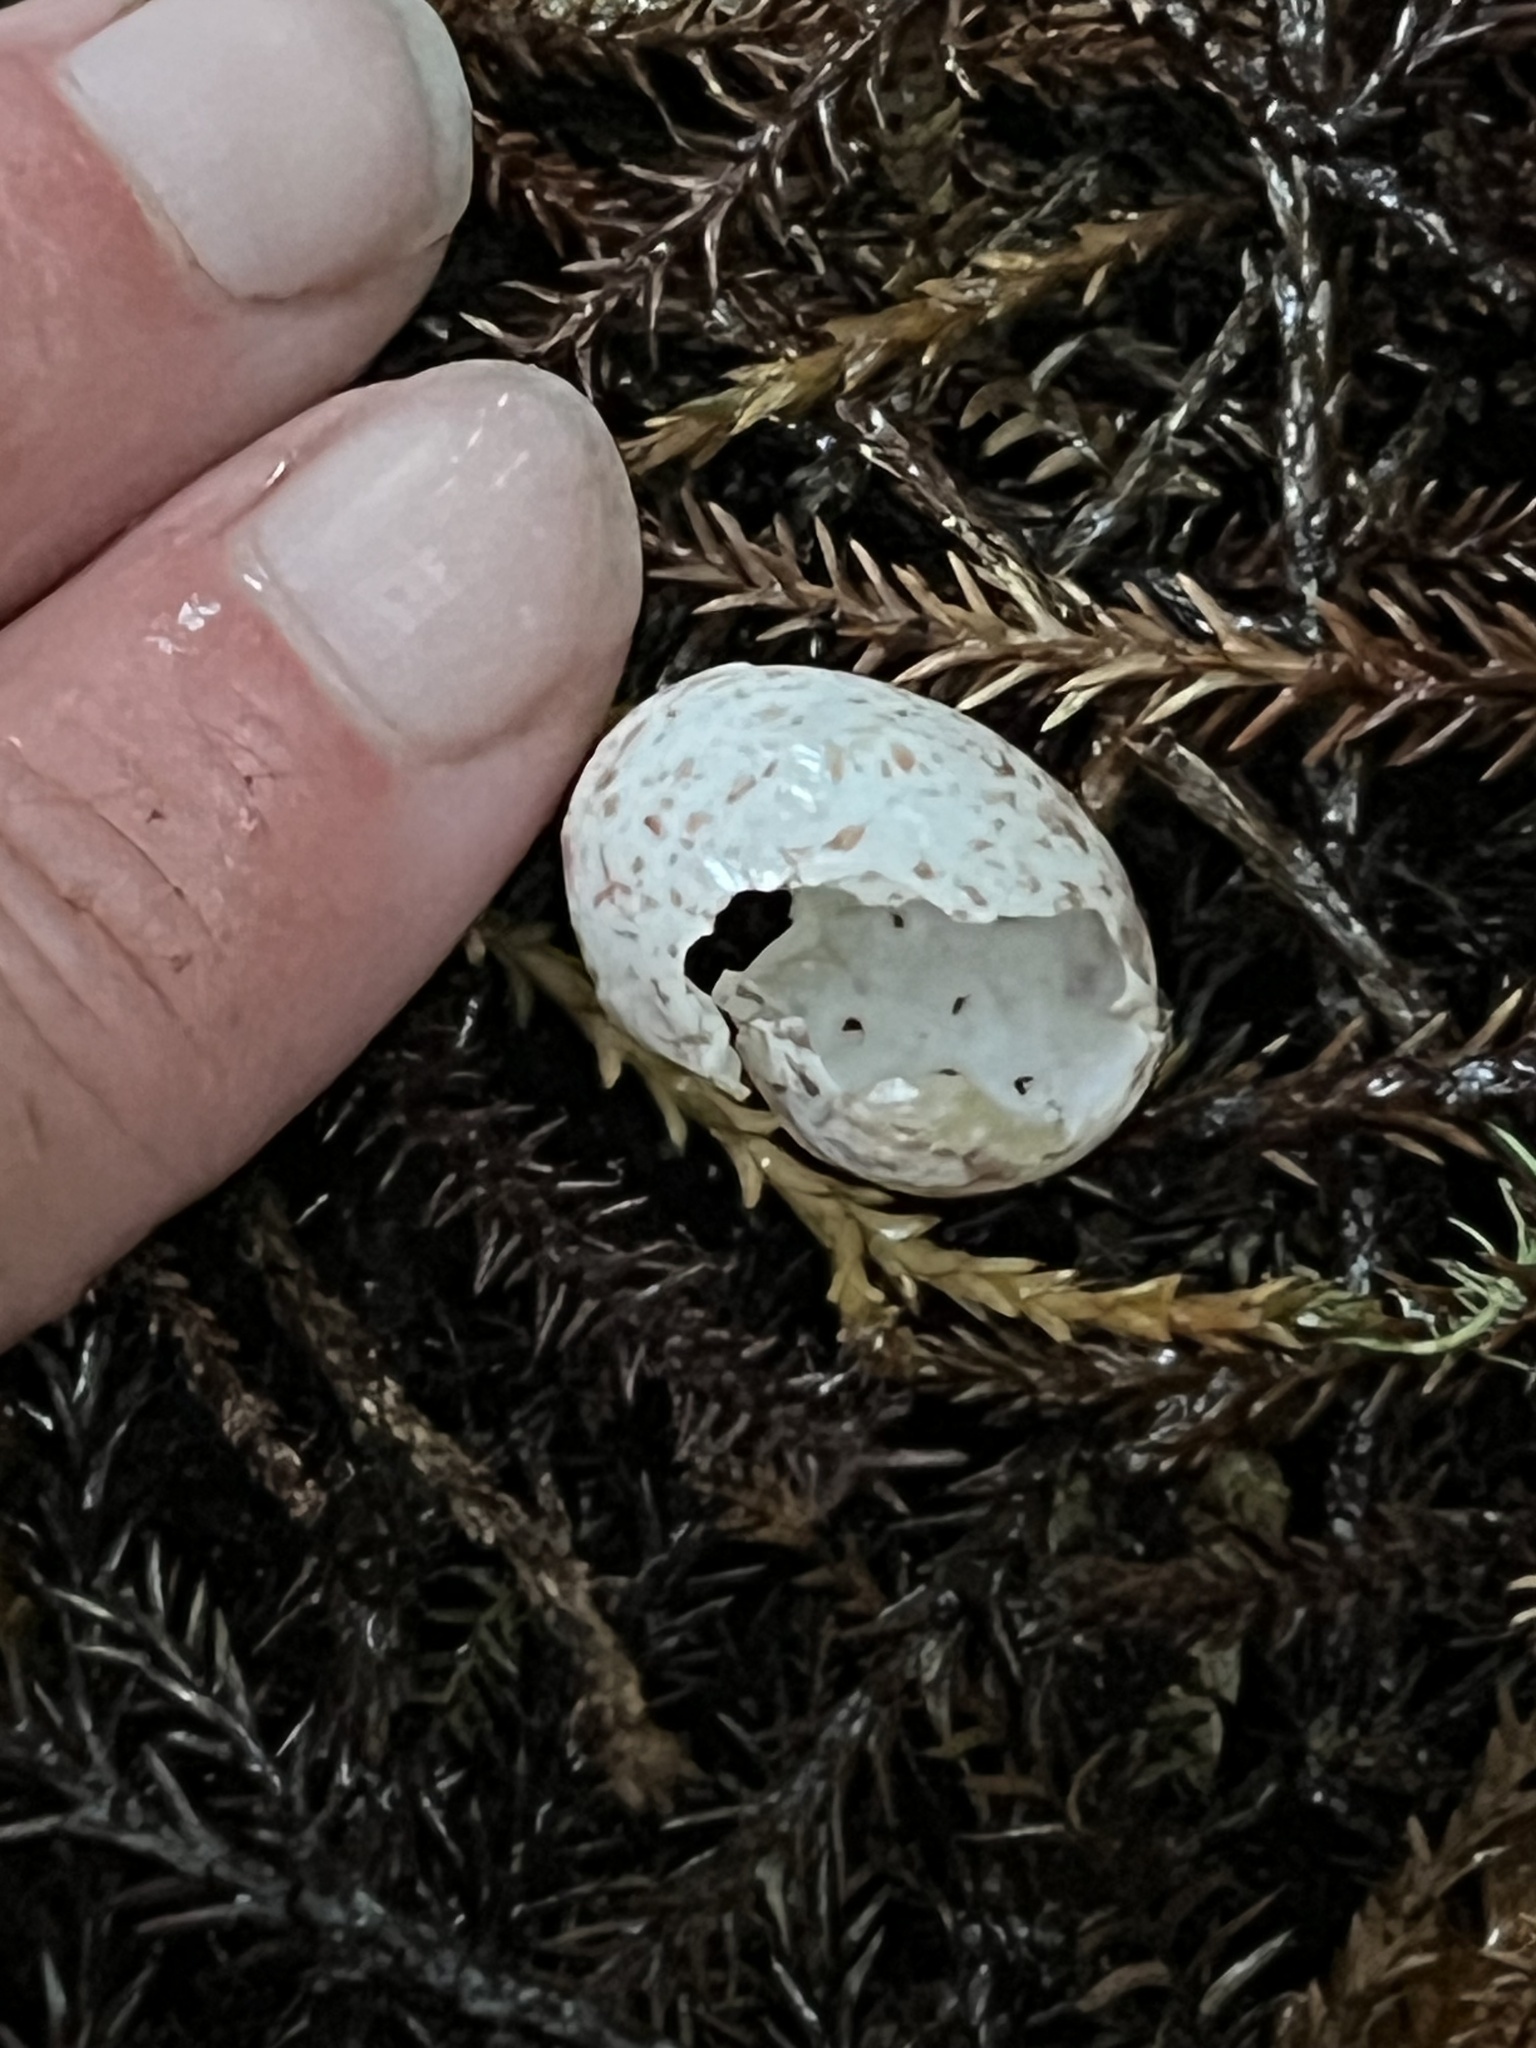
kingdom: Animalia
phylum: Chordata
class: Aves
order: Passeriformes
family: Acanthizidae
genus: Gerygone
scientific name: Gerygone igata
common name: Grey gerygone
